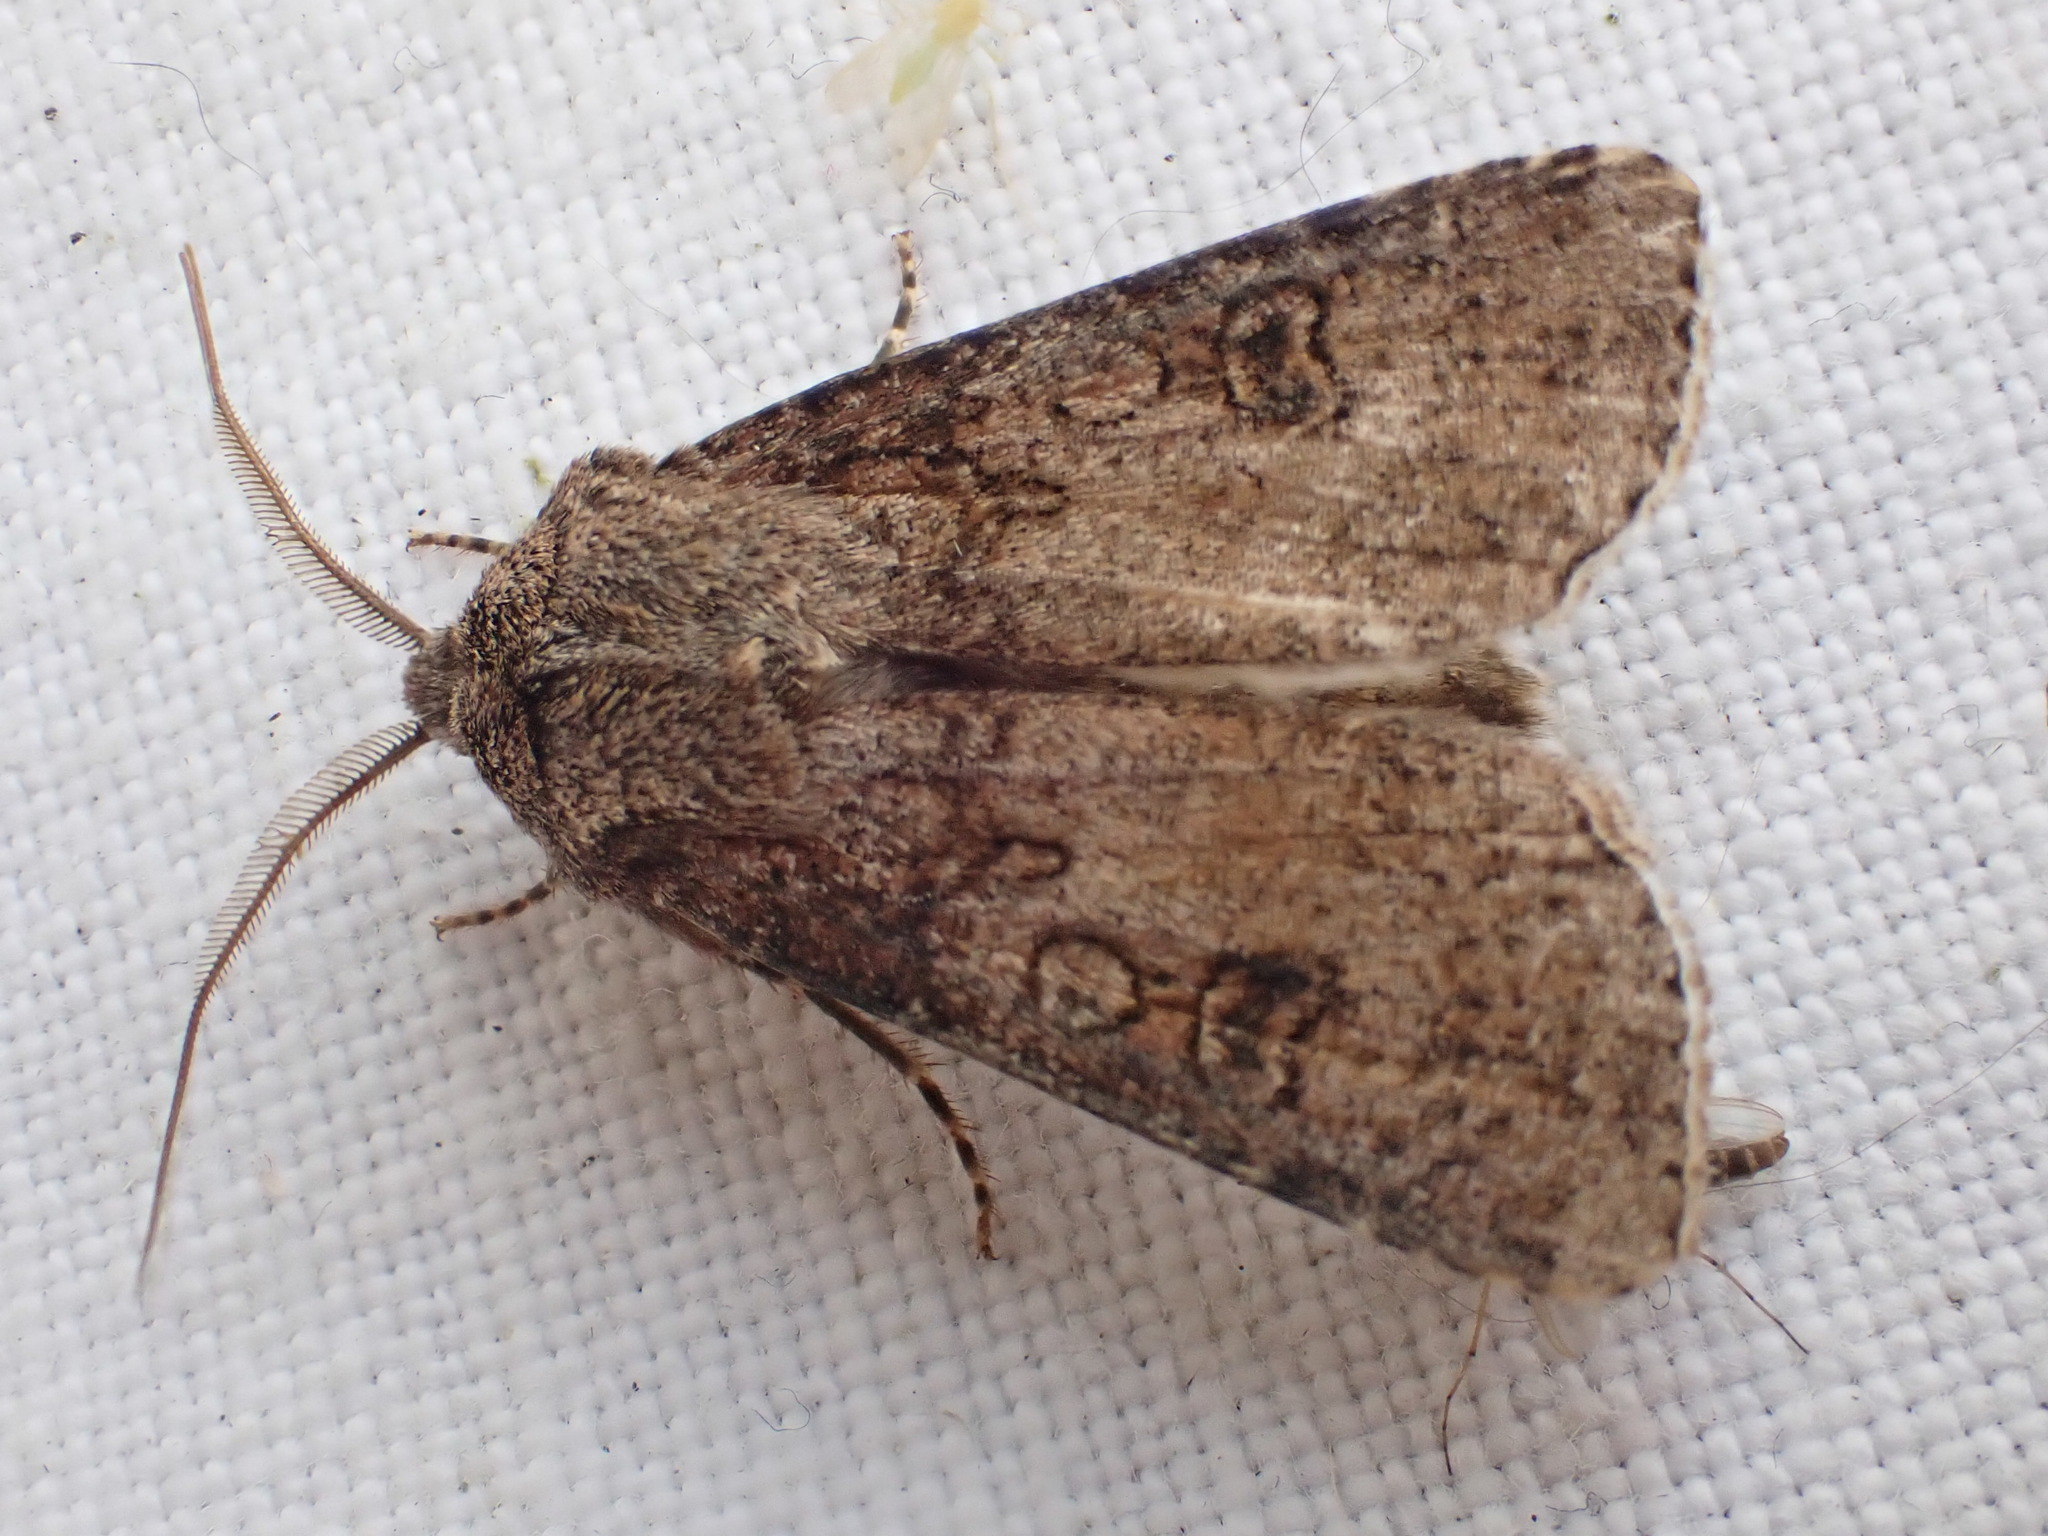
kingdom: Animalia
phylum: Arthropoda
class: Insecta
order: Lepidoptera
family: Noctuidae
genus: Agrotis
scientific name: Agrotis clavis
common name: Heart and club
